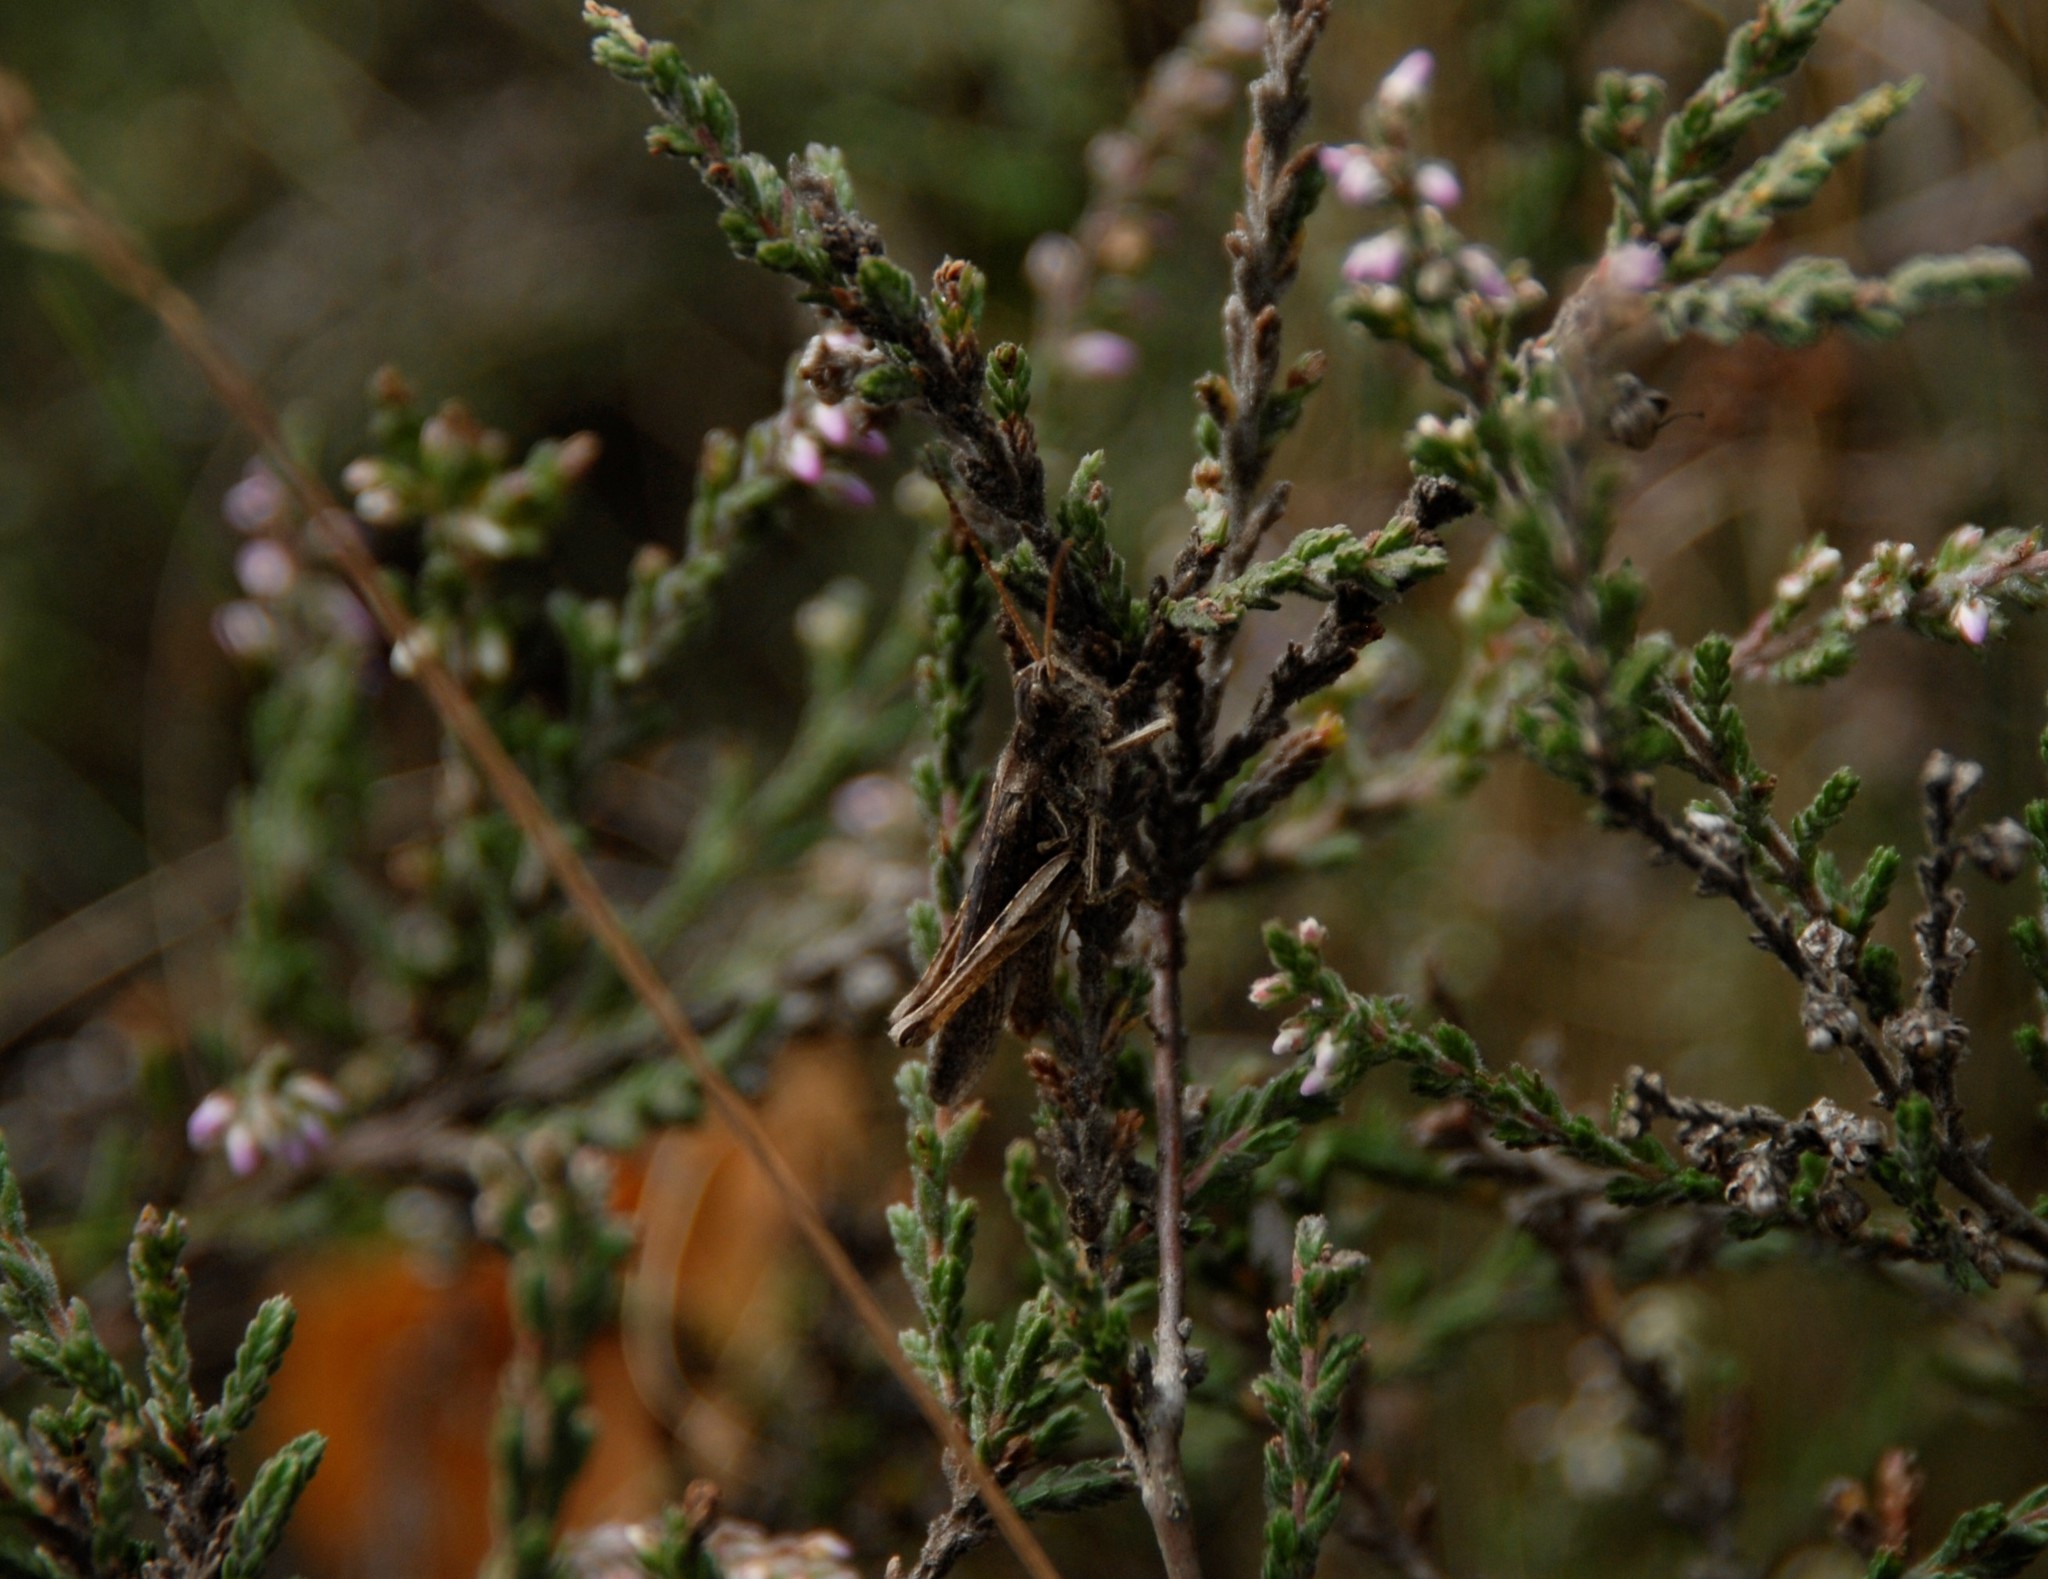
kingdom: Animalia
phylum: Arthropoda
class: Insecta
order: Orthoptera
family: Acrididae
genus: Chorthippus
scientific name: Chorthippus brunneus
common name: Field grasshopper
